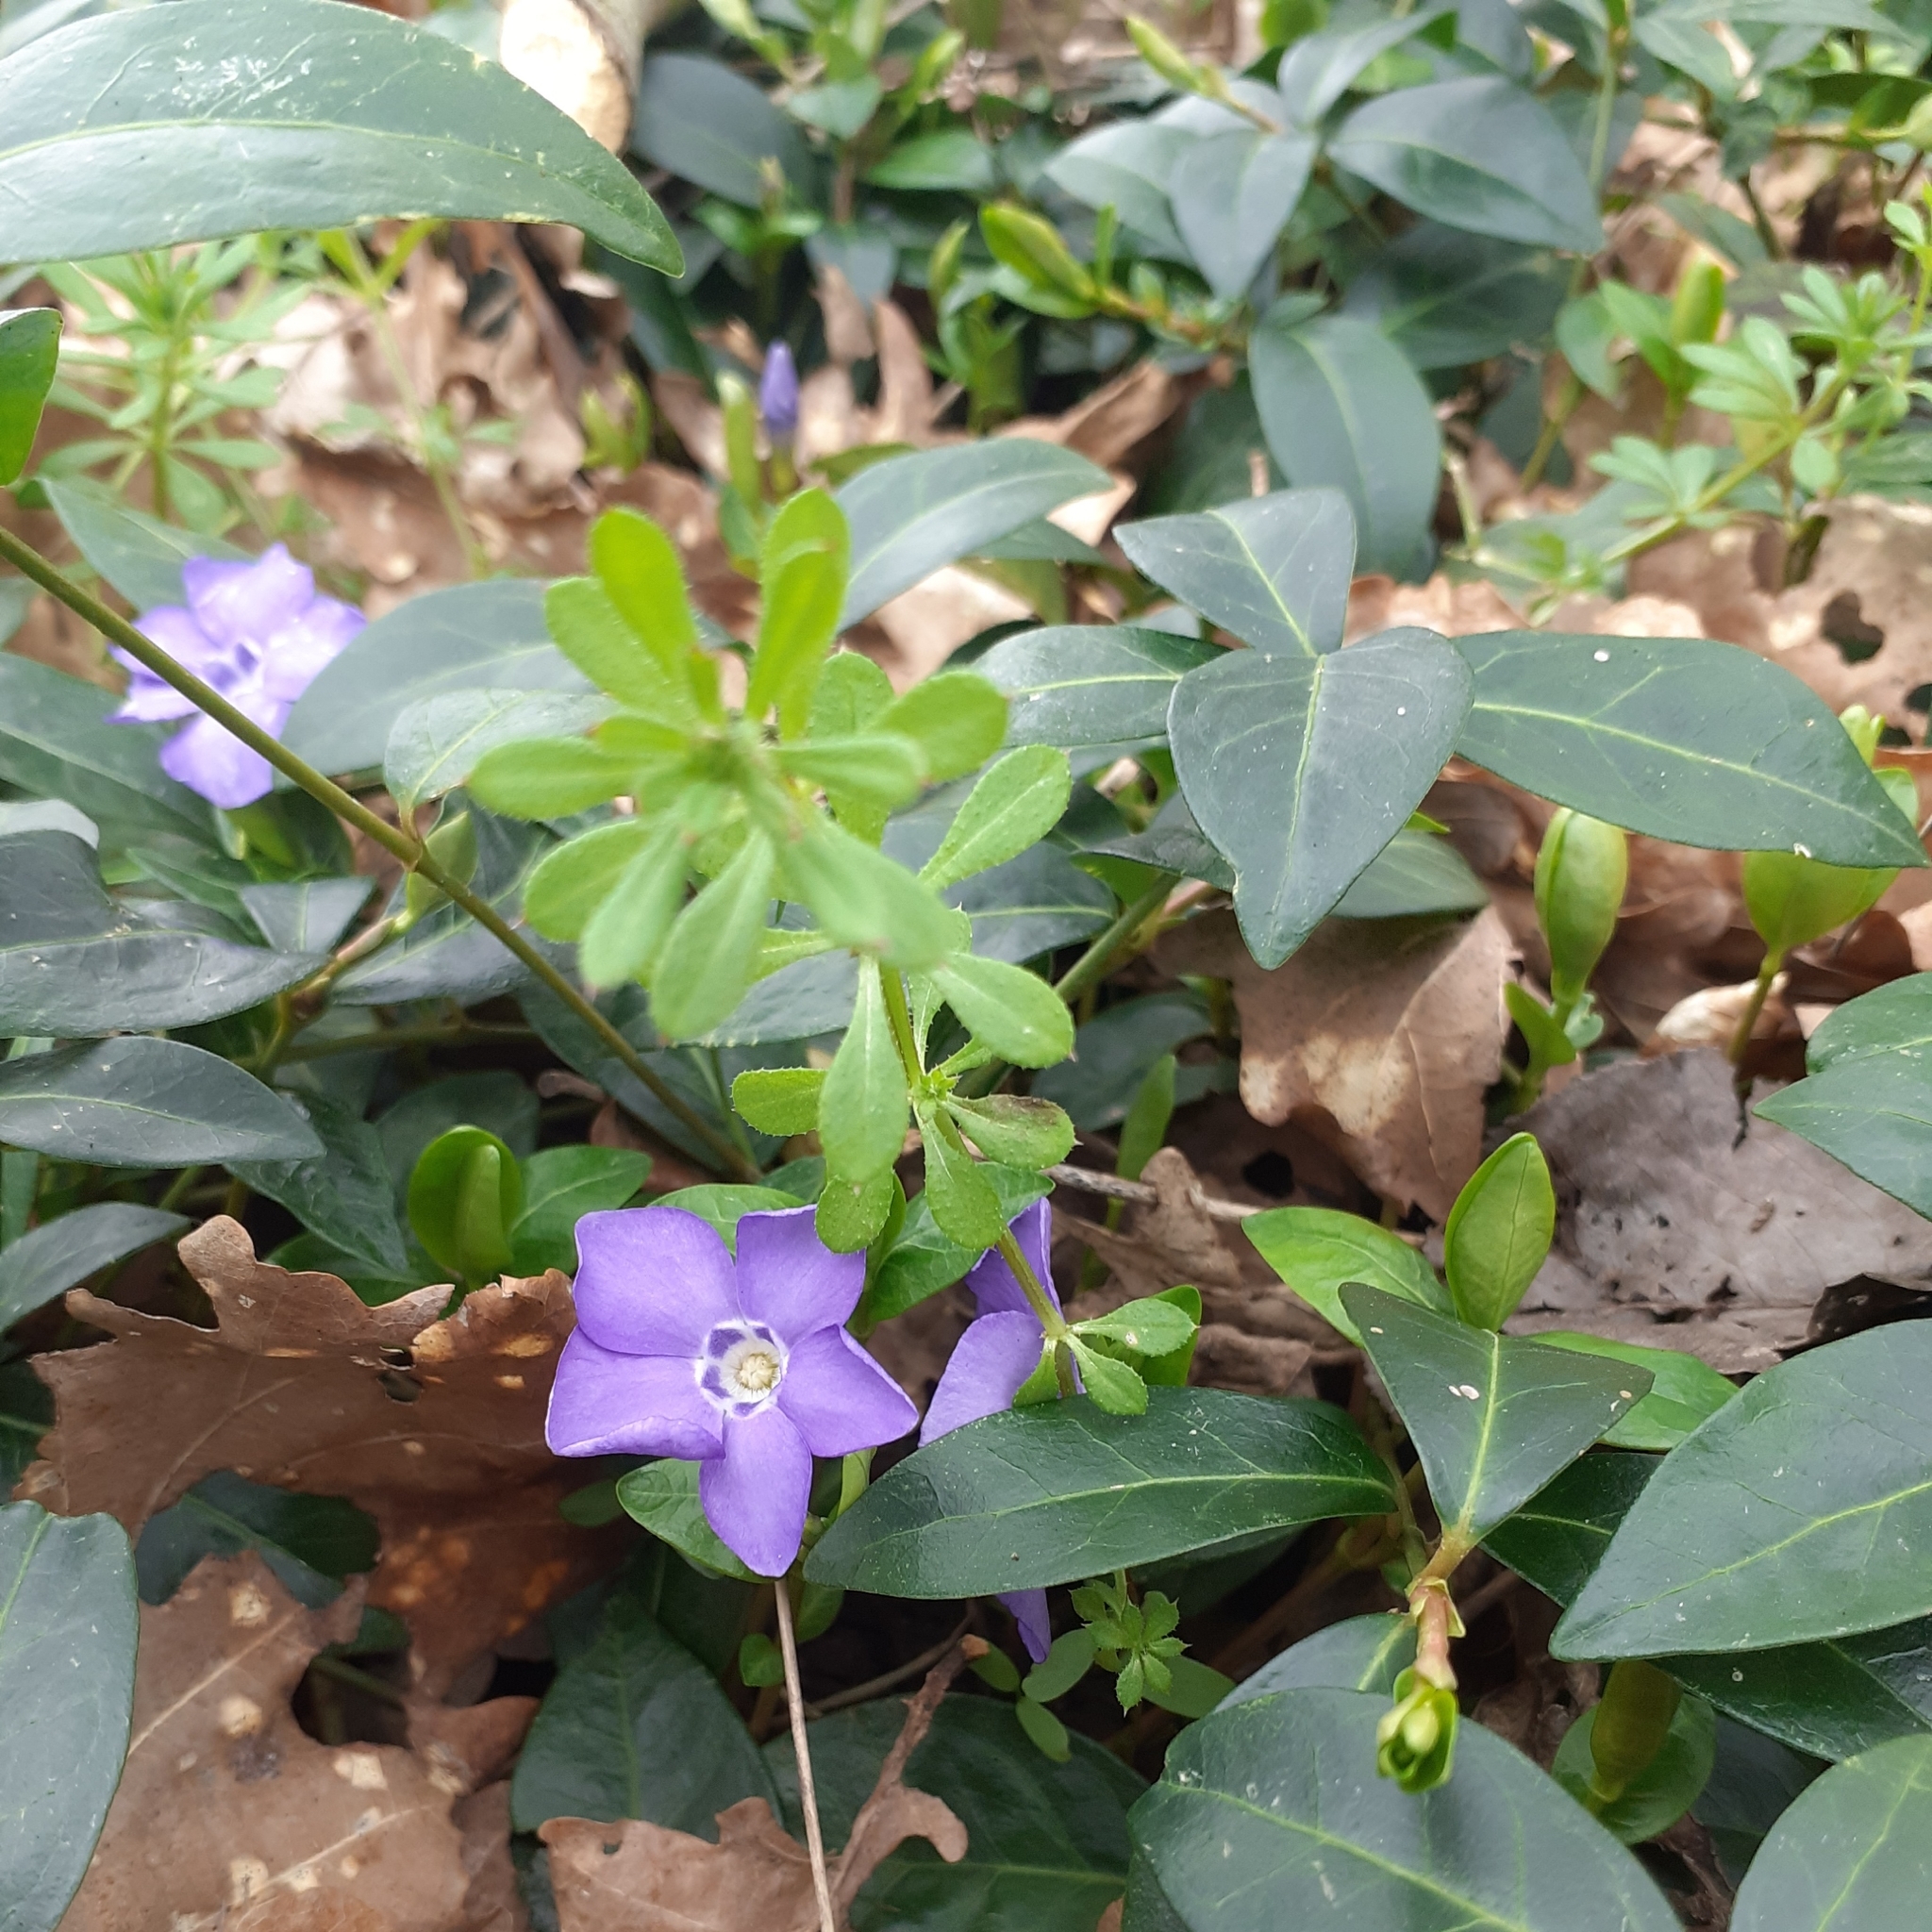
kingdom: Plantae
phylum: Tracheophyta
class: Magnoliopsida
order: Gentianales
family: Apocynaceae
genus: Vinca
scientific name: Vinca minor
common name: Lesser periwinkle
